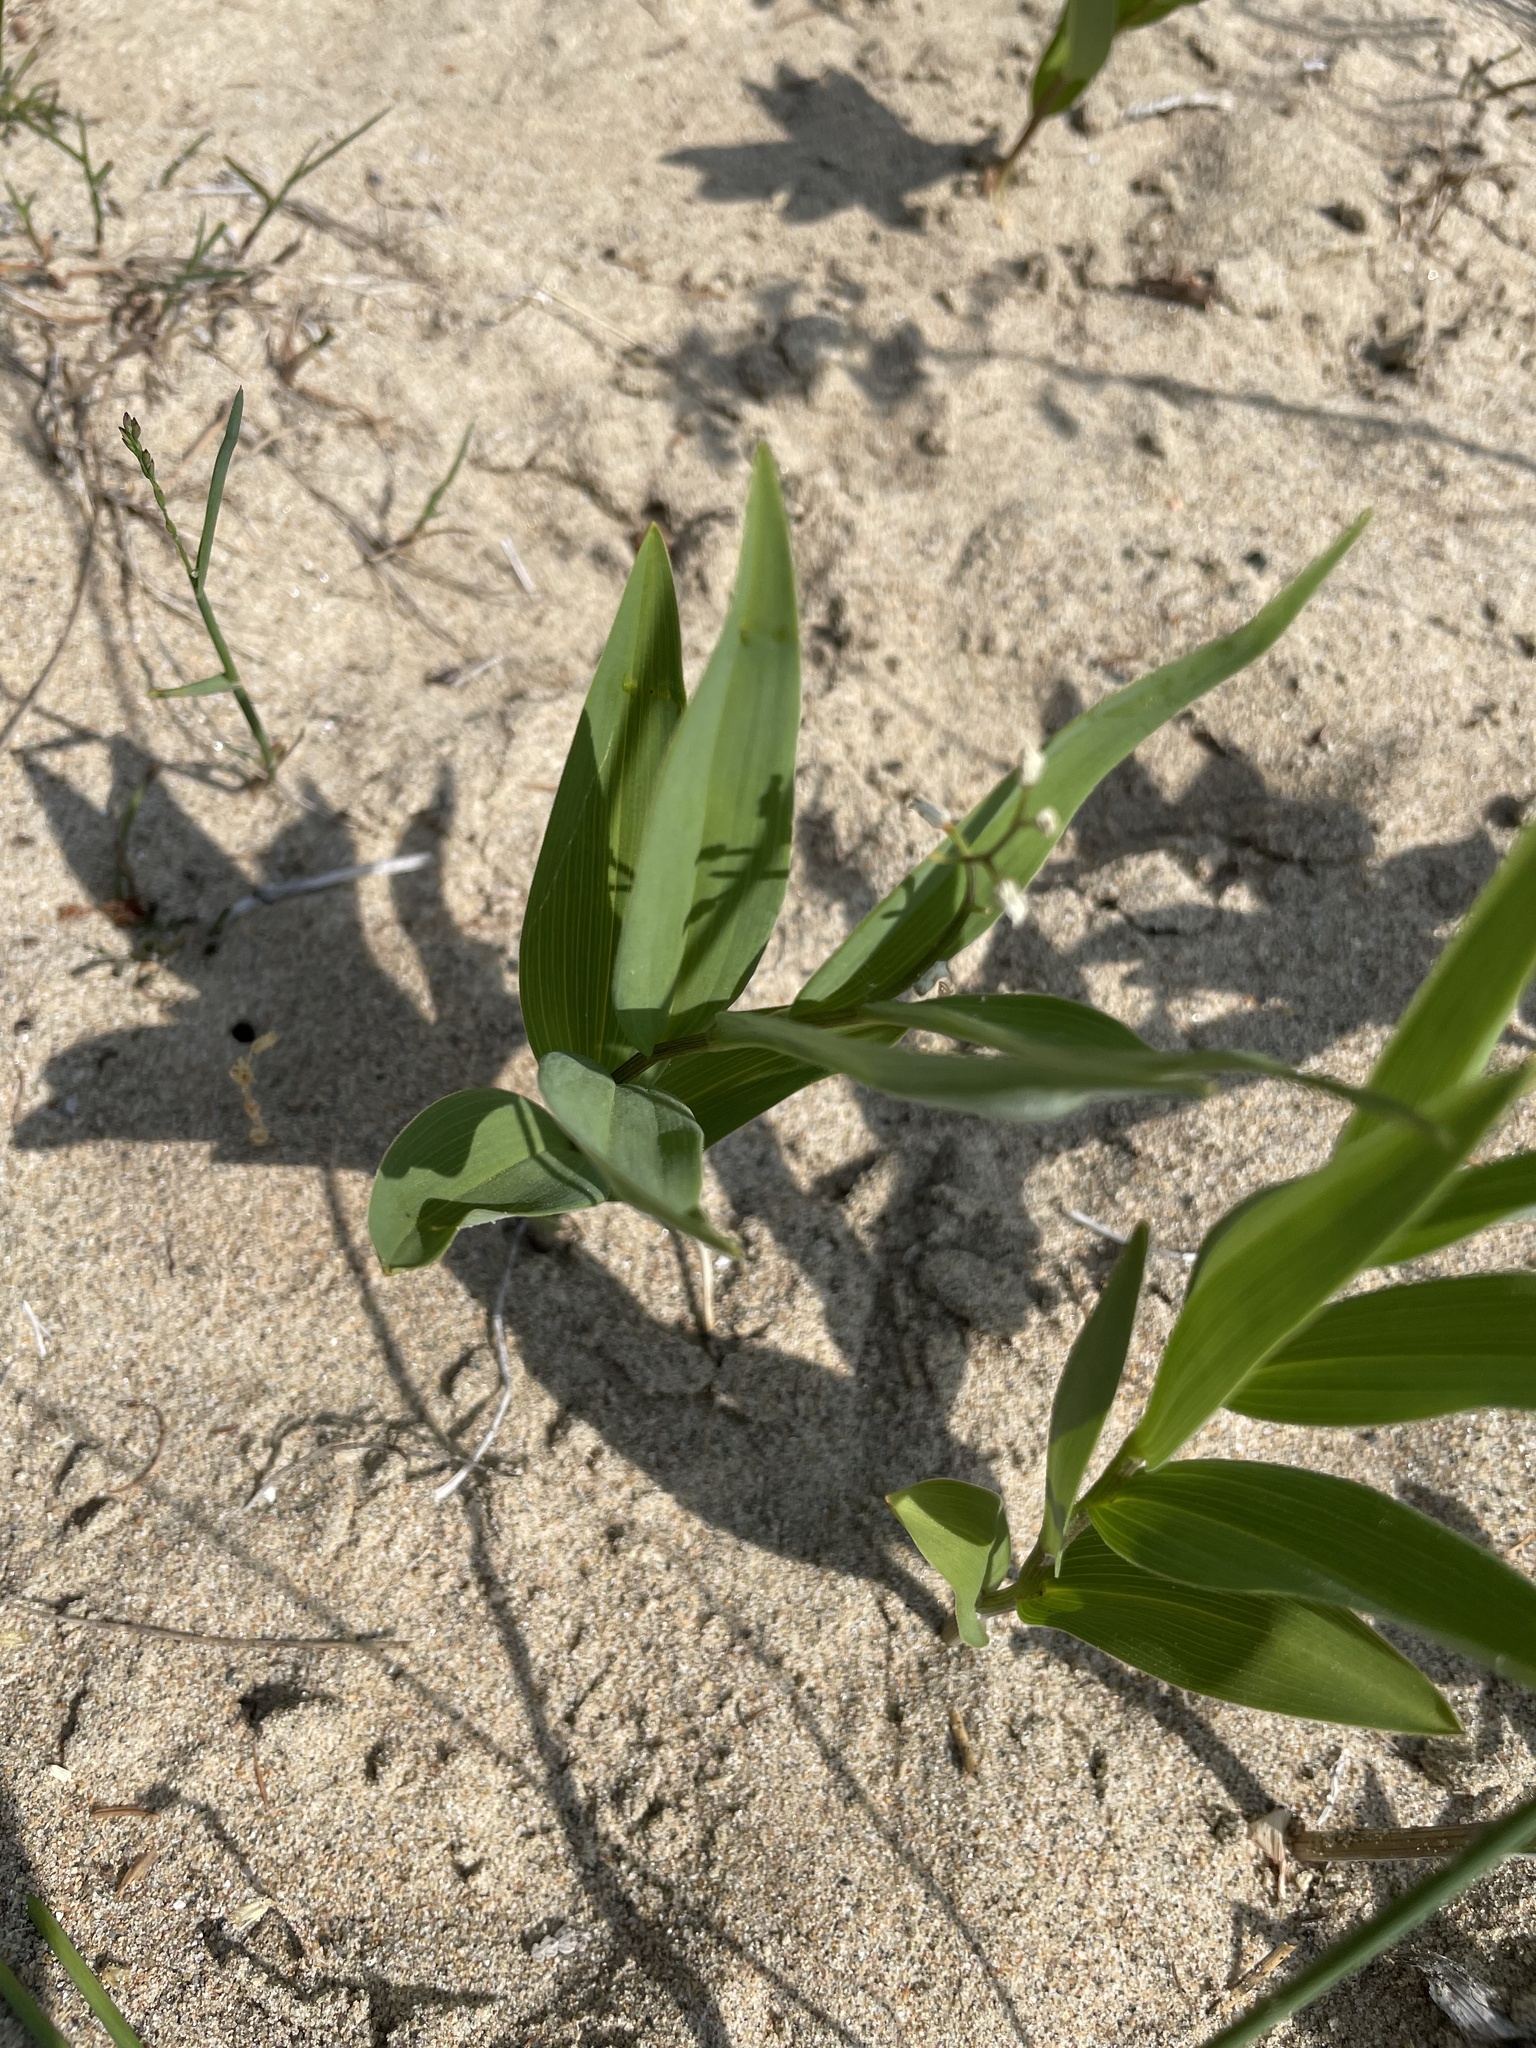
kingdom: Plantae
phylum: Tracheophyta
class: Liliopsida
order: Asparagales
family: Asparagaceae
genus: Maianthemum
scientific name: Maianthemum stellatum
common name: Little false solomon's seal
